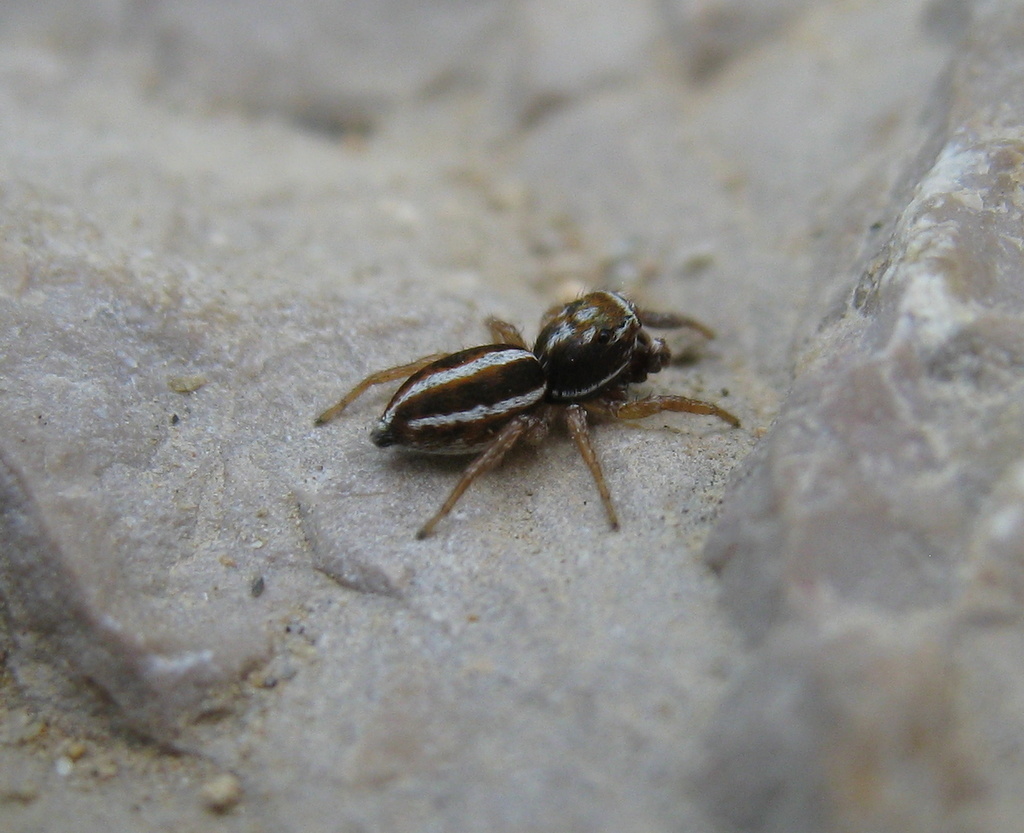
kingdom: Animalia
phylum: Arthropoda
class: Arachnida
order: Araneae
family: Salticidae
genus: Icius
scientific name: Icius subinermis
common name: Jumping spider
